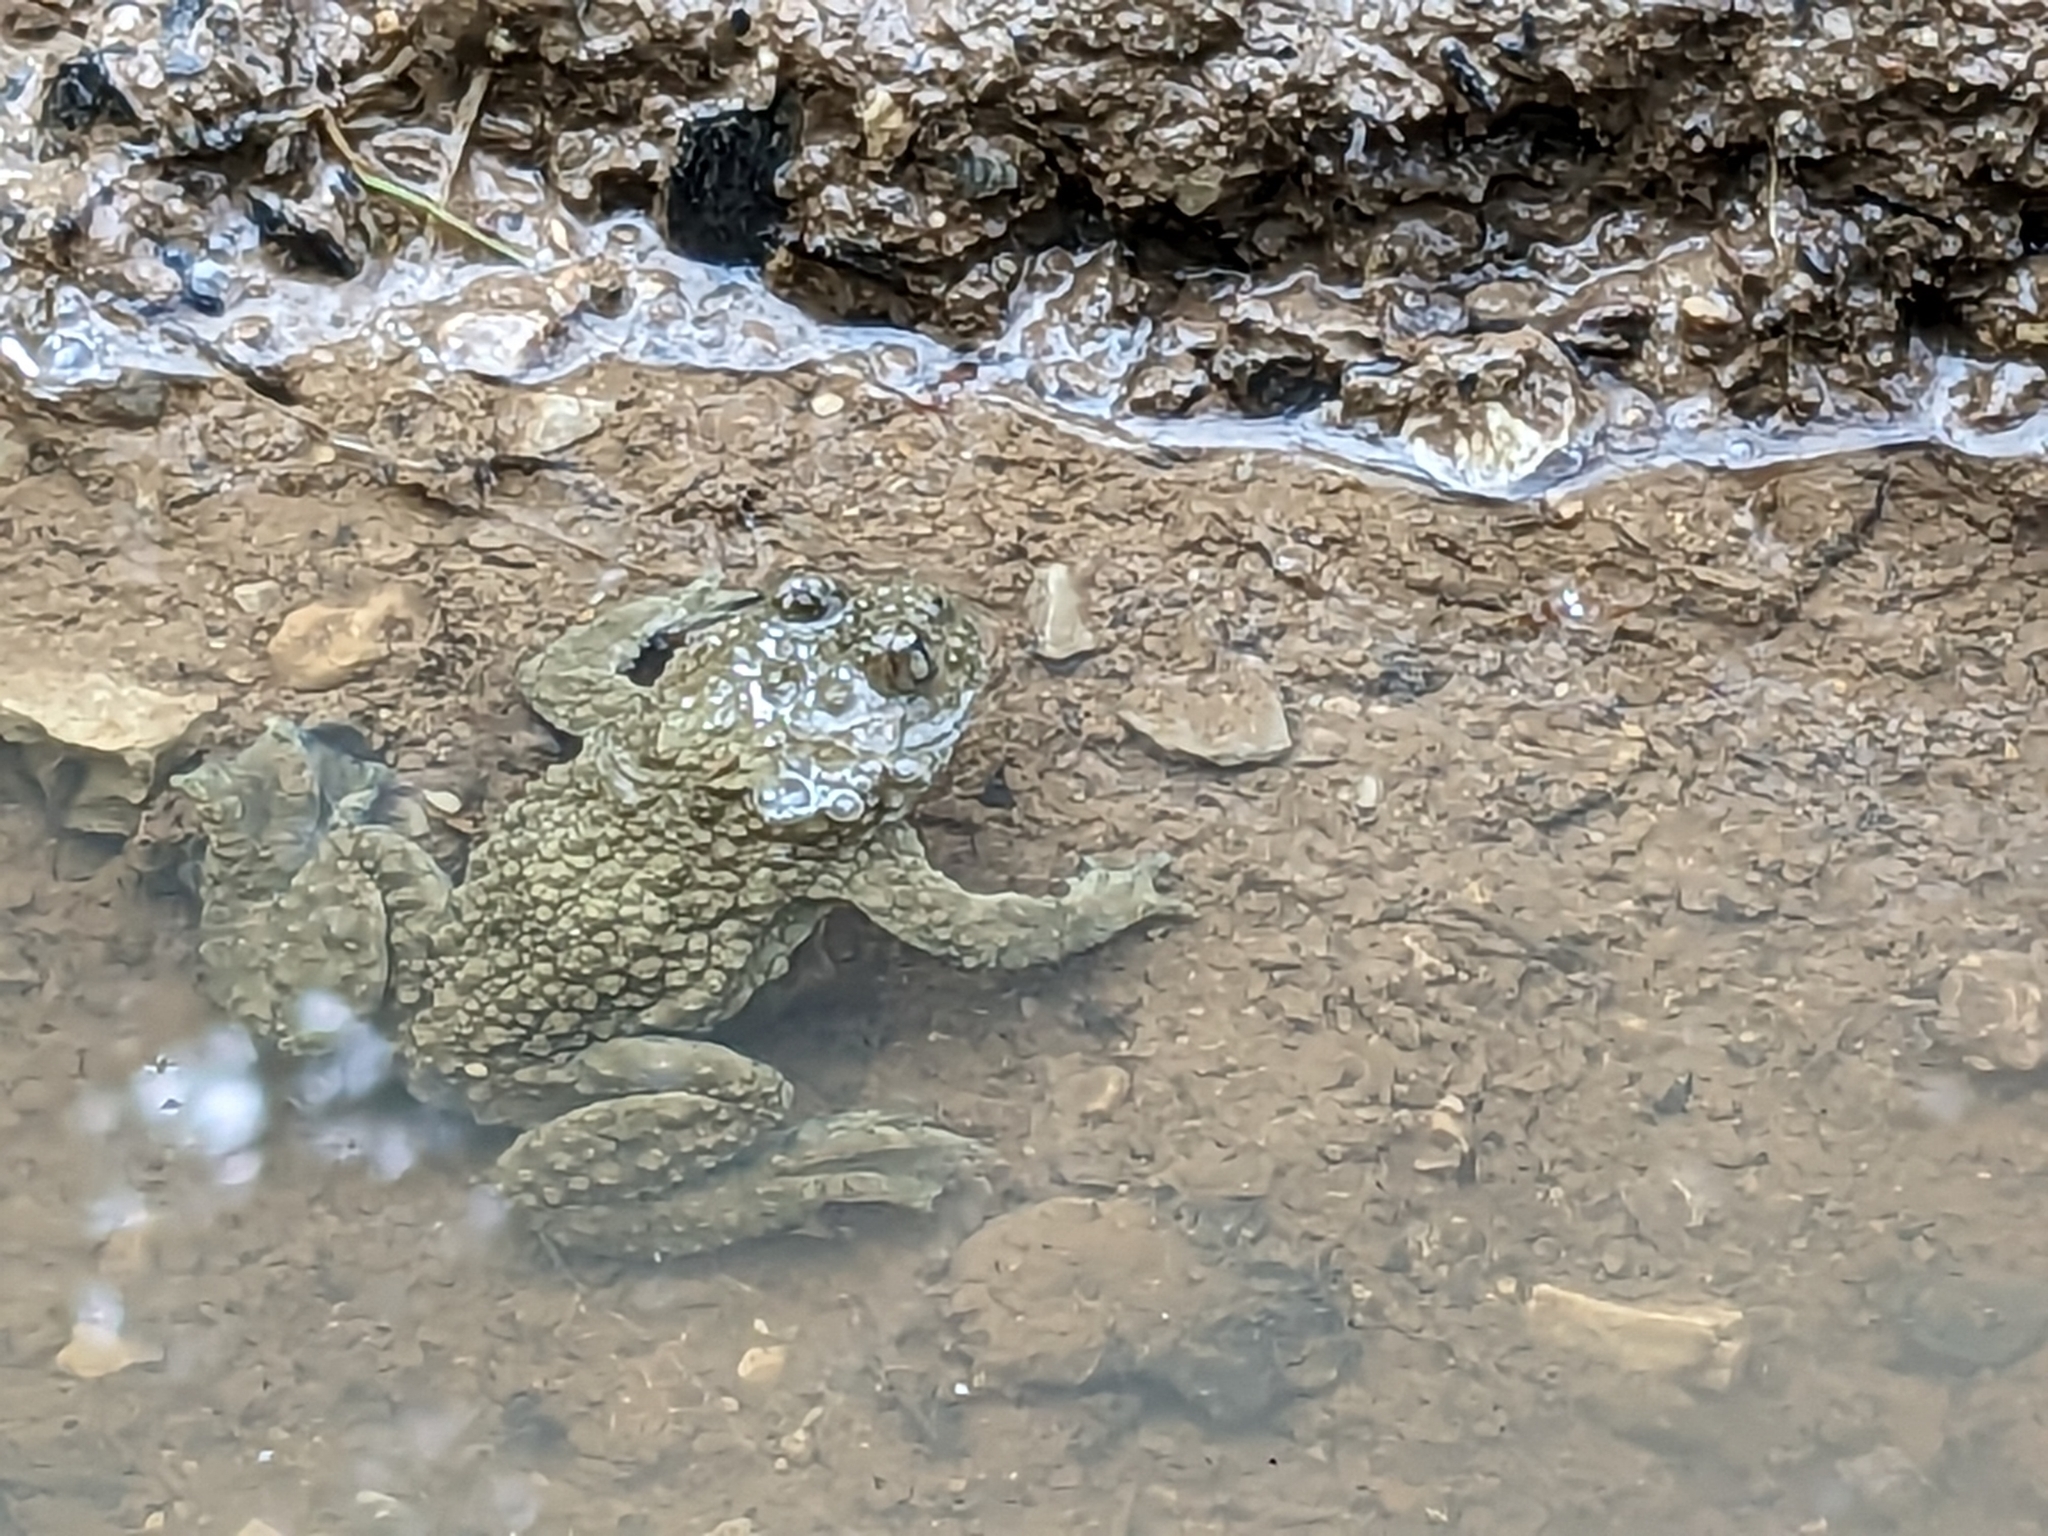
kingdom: Animalia
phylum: Chordata
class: Amphibia
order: Anura
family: Bombinatoridae
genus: Bombina
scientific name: Bombina variegata
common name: Yellow-bellied toad
